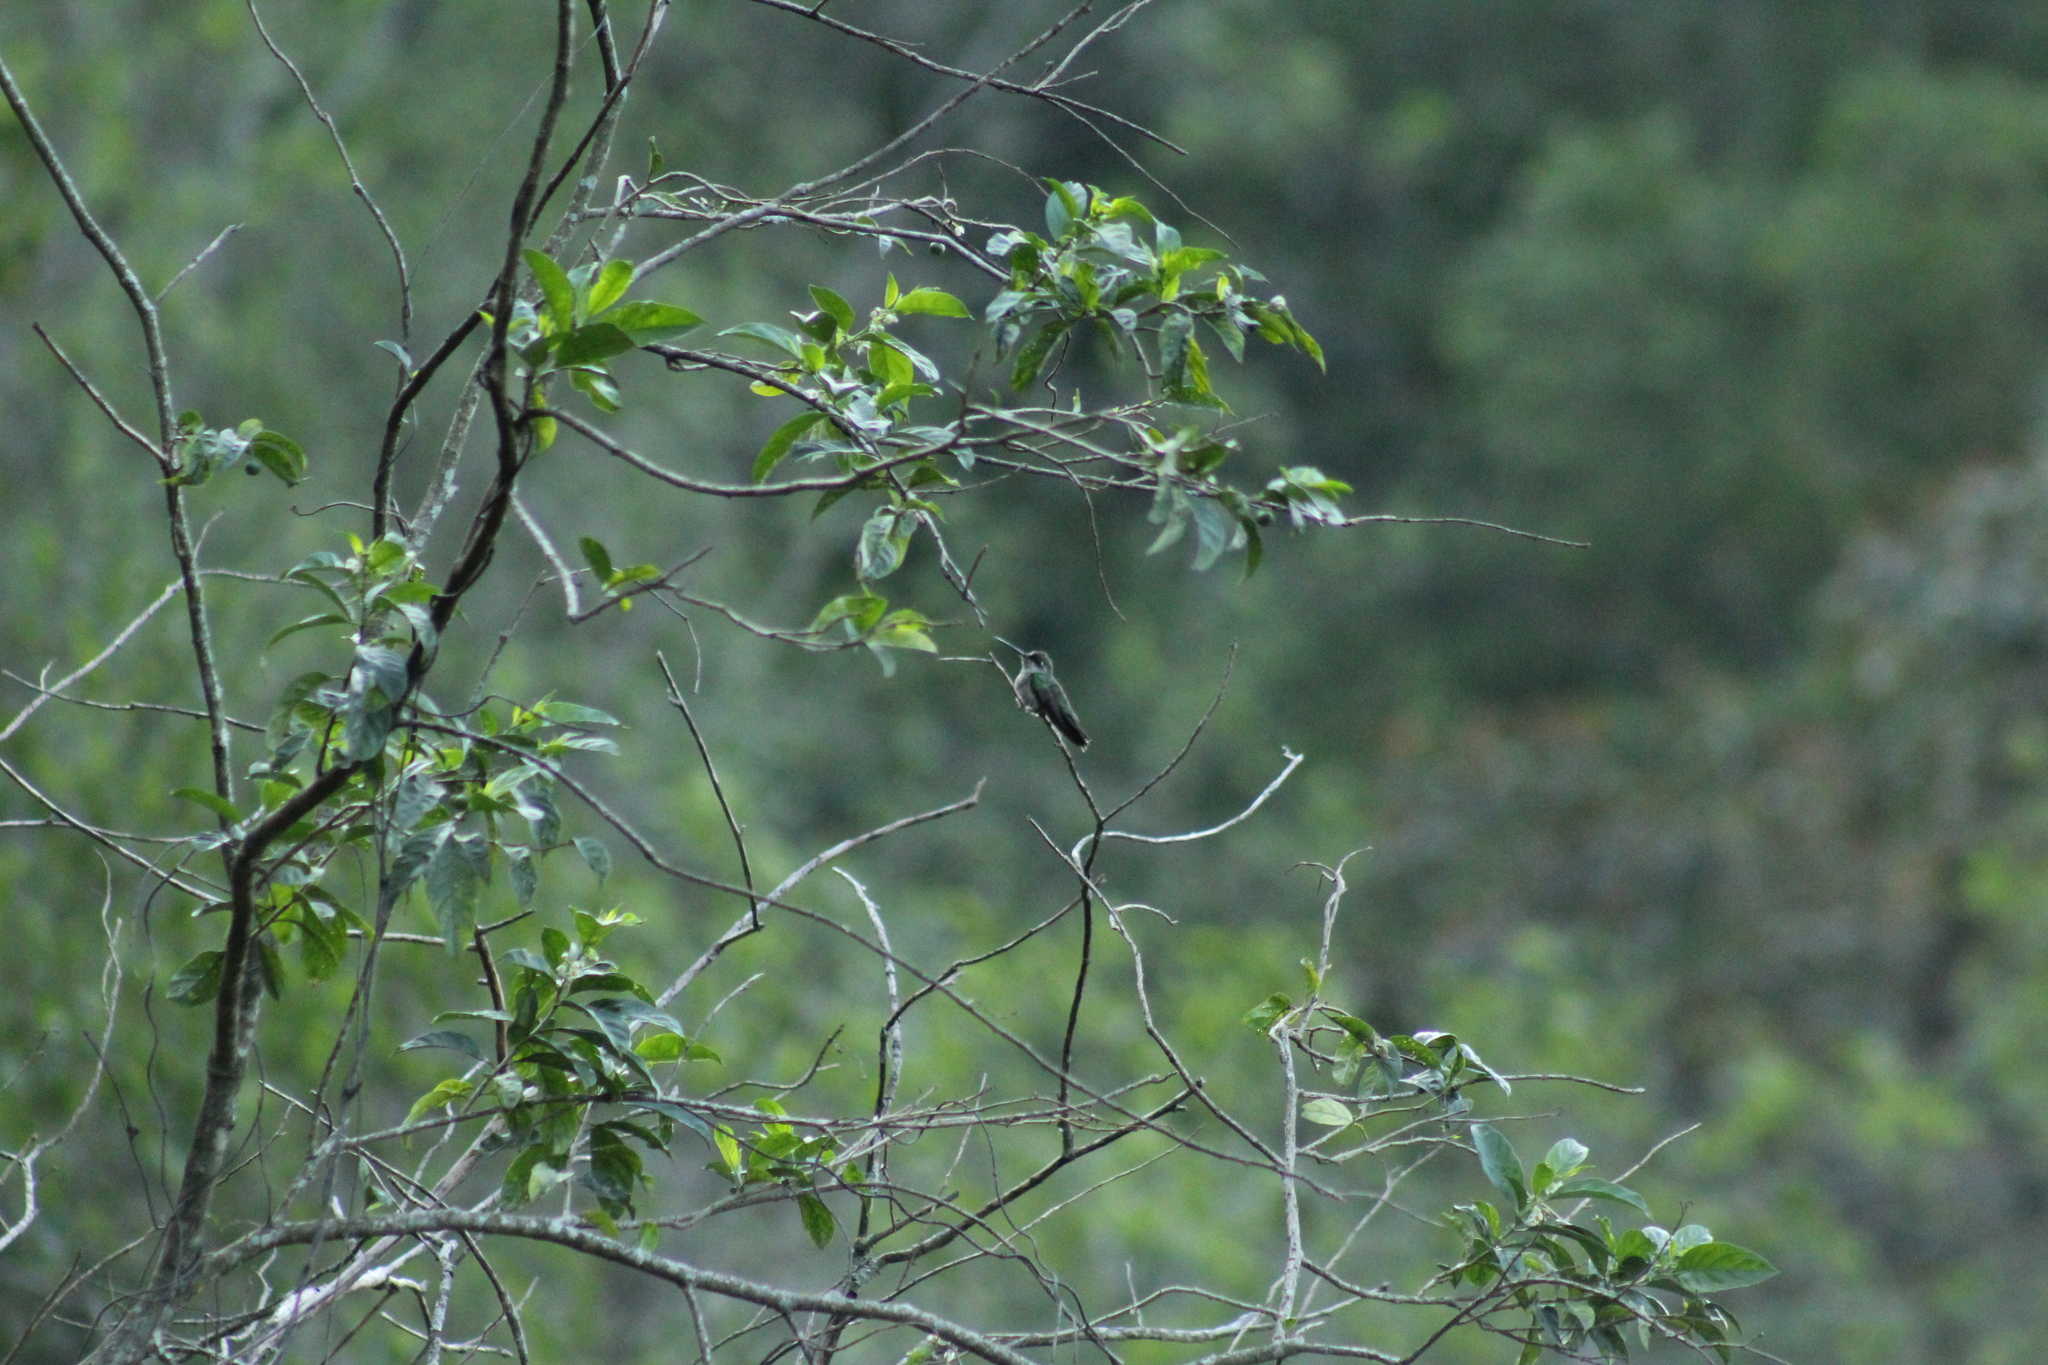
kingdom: Animalia
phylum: Chordata
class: Aves
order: Apodiformes
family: Trochilidae
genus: Eugenes
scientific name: Eugenes fulgens
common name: Magnificent hummingbird
